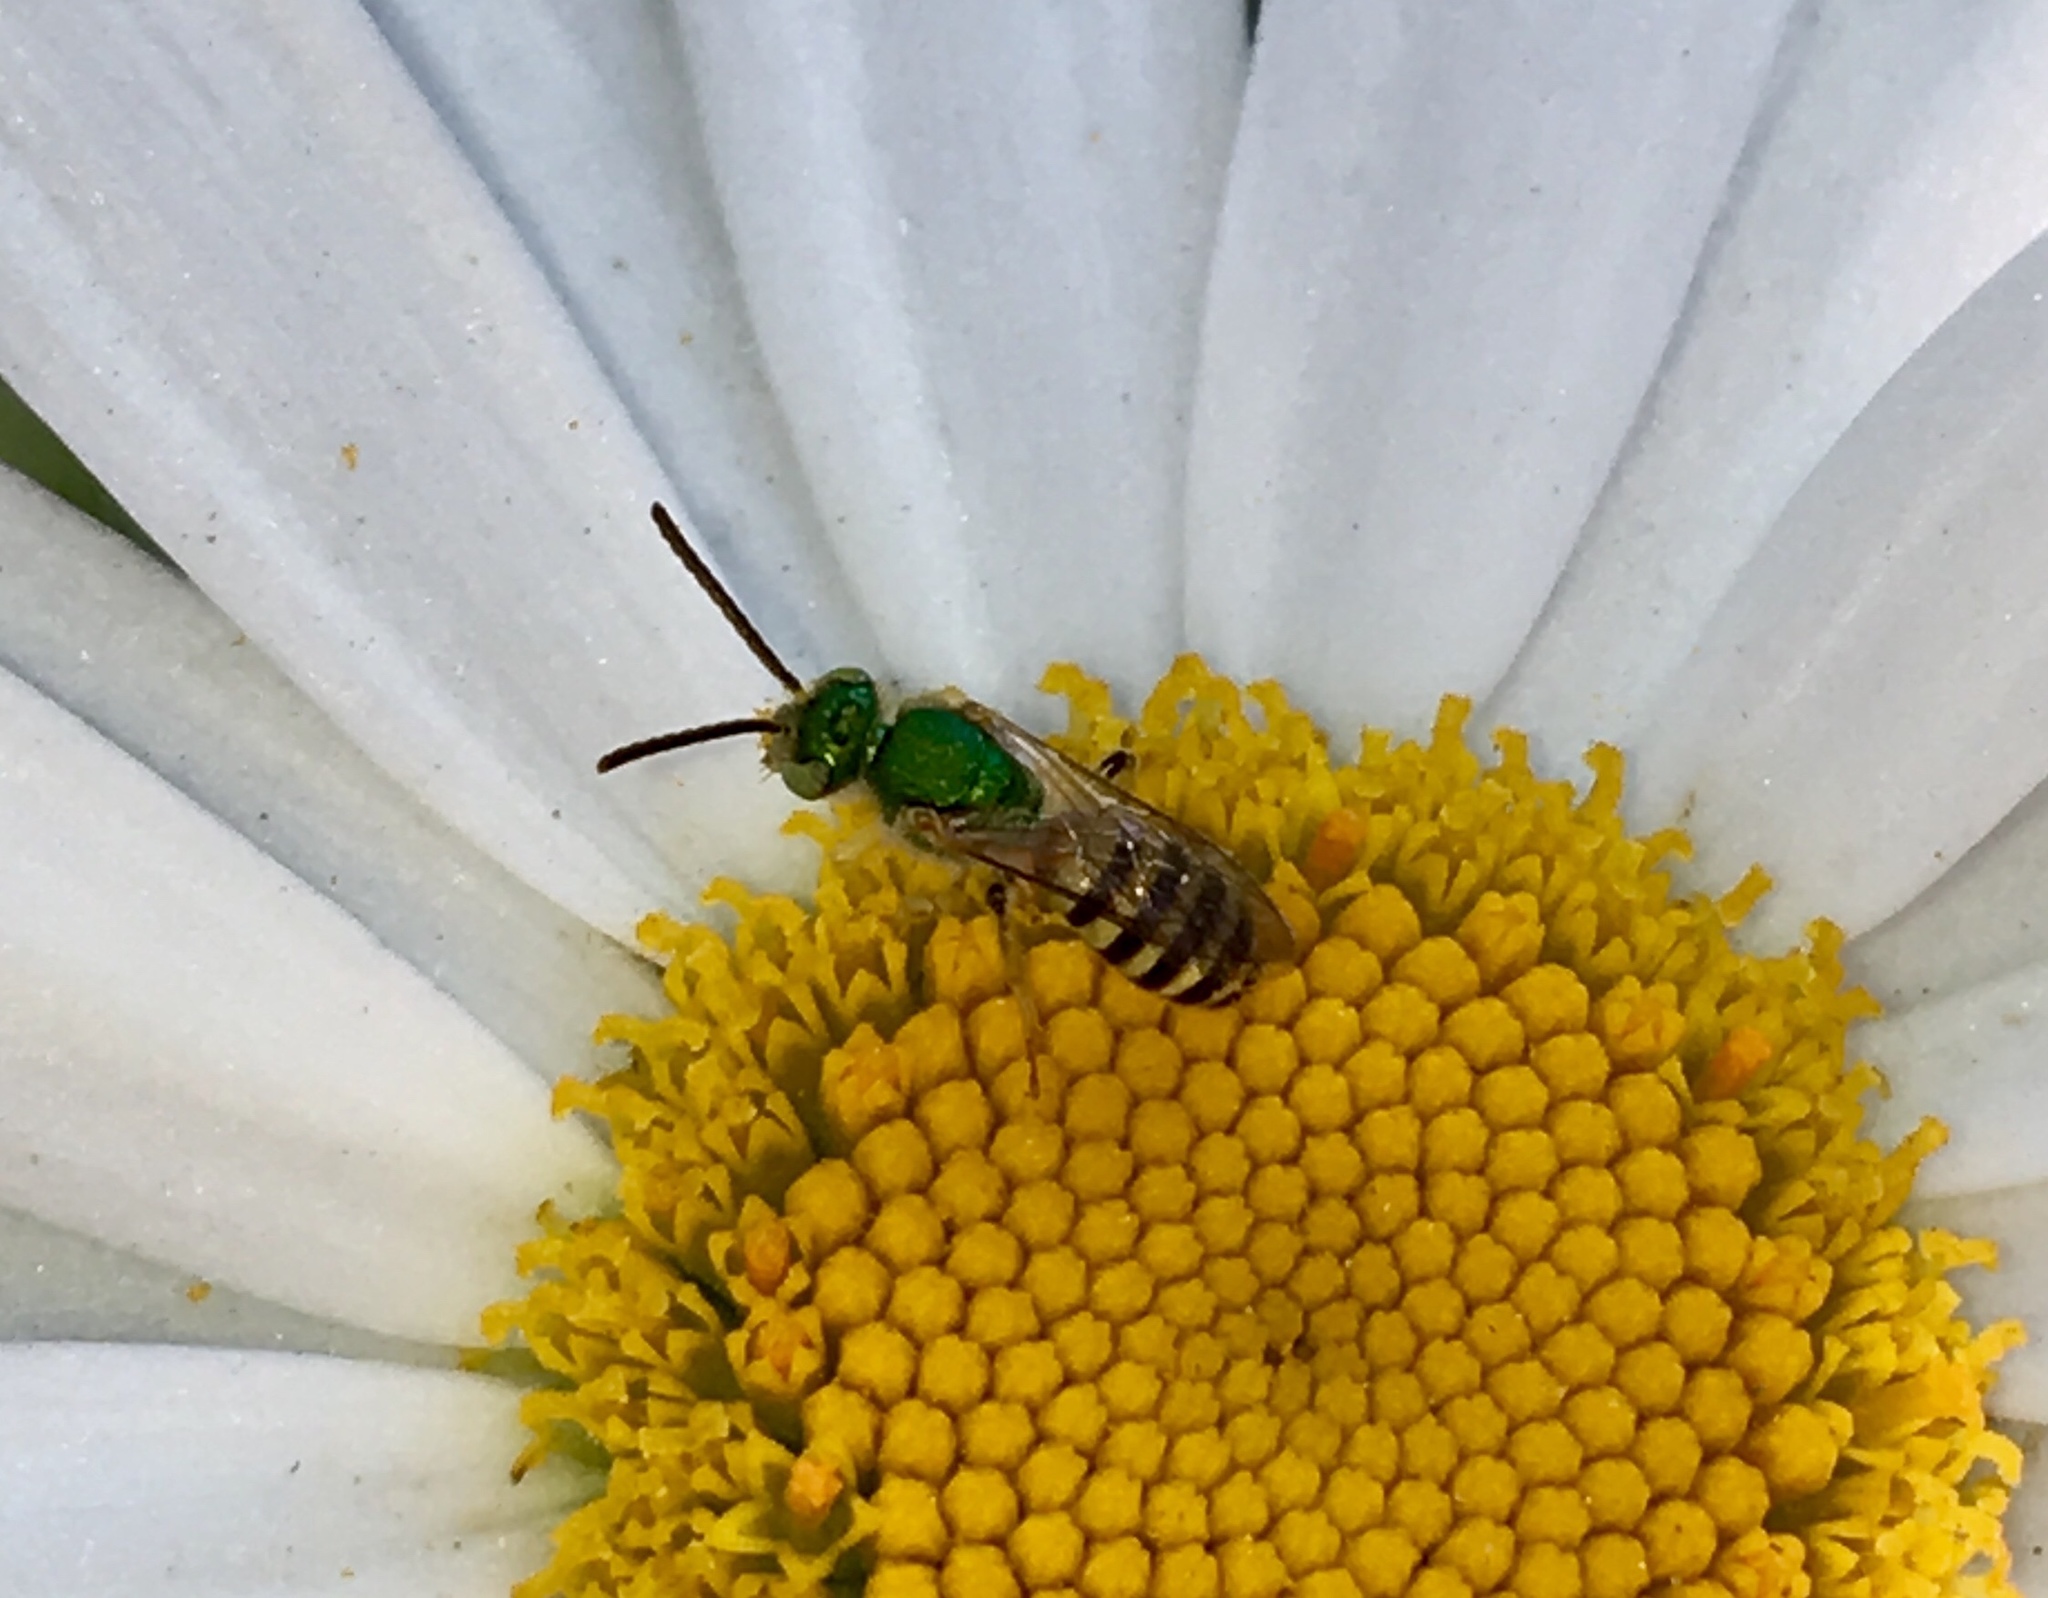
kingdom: Animalia
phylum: Arthropoda
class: Insecta
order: Hymenoptera
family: Halictidae
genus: Agapostemon
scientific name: Agapostemon melliventris
